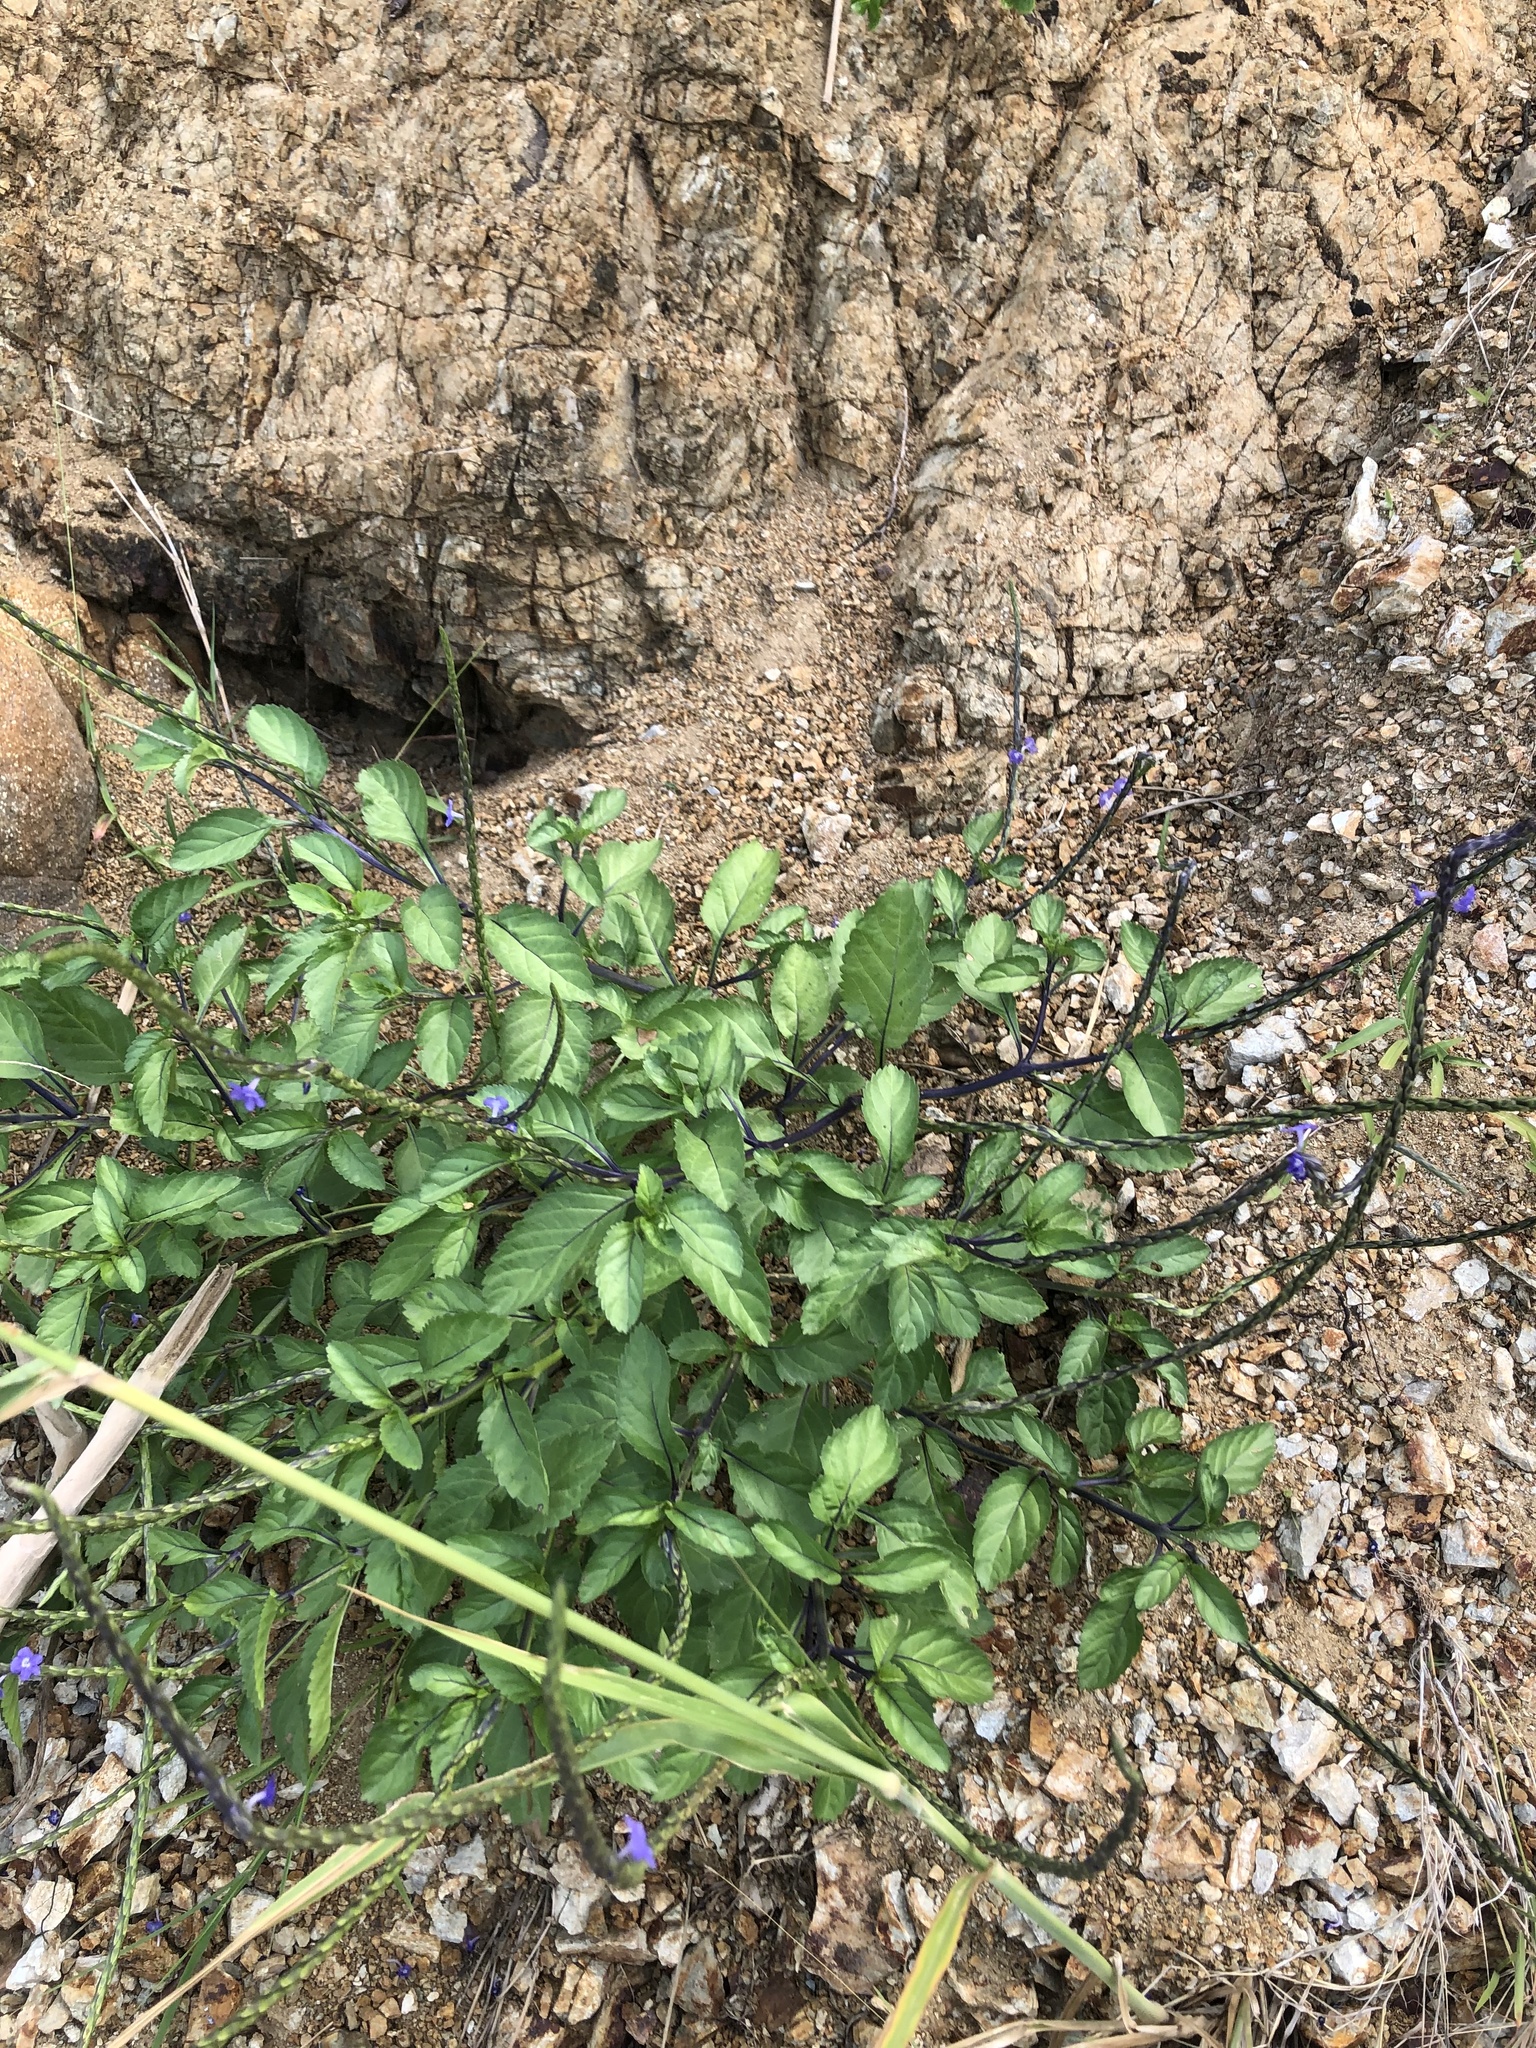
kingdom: Plantae
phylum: Tracheophyta
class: Magnoliopsida
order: Lamiales
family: Verbenaceae
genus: Stachytarpheta
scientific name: Stachytarpheta jamaicensis
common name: Light-blue snakeweed
